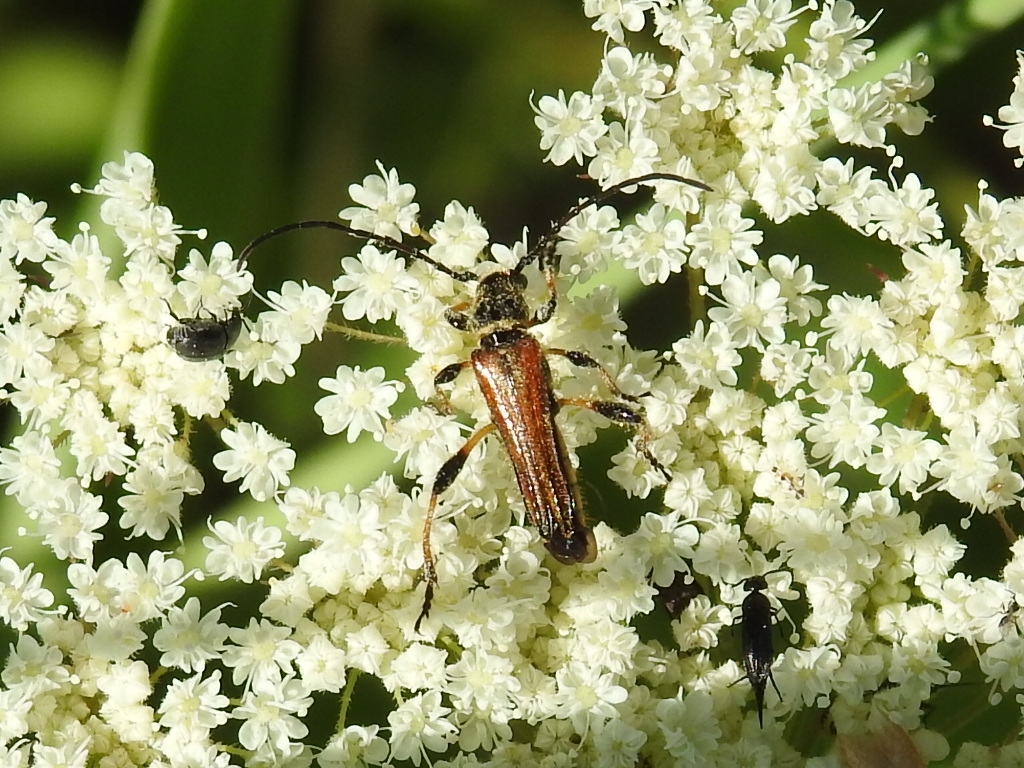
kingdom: Animalia
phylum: Arthropoda
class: Insecta
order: Coleoptera
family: Cerambycidae
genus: Stenopterus
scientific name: Stenopterus ater
